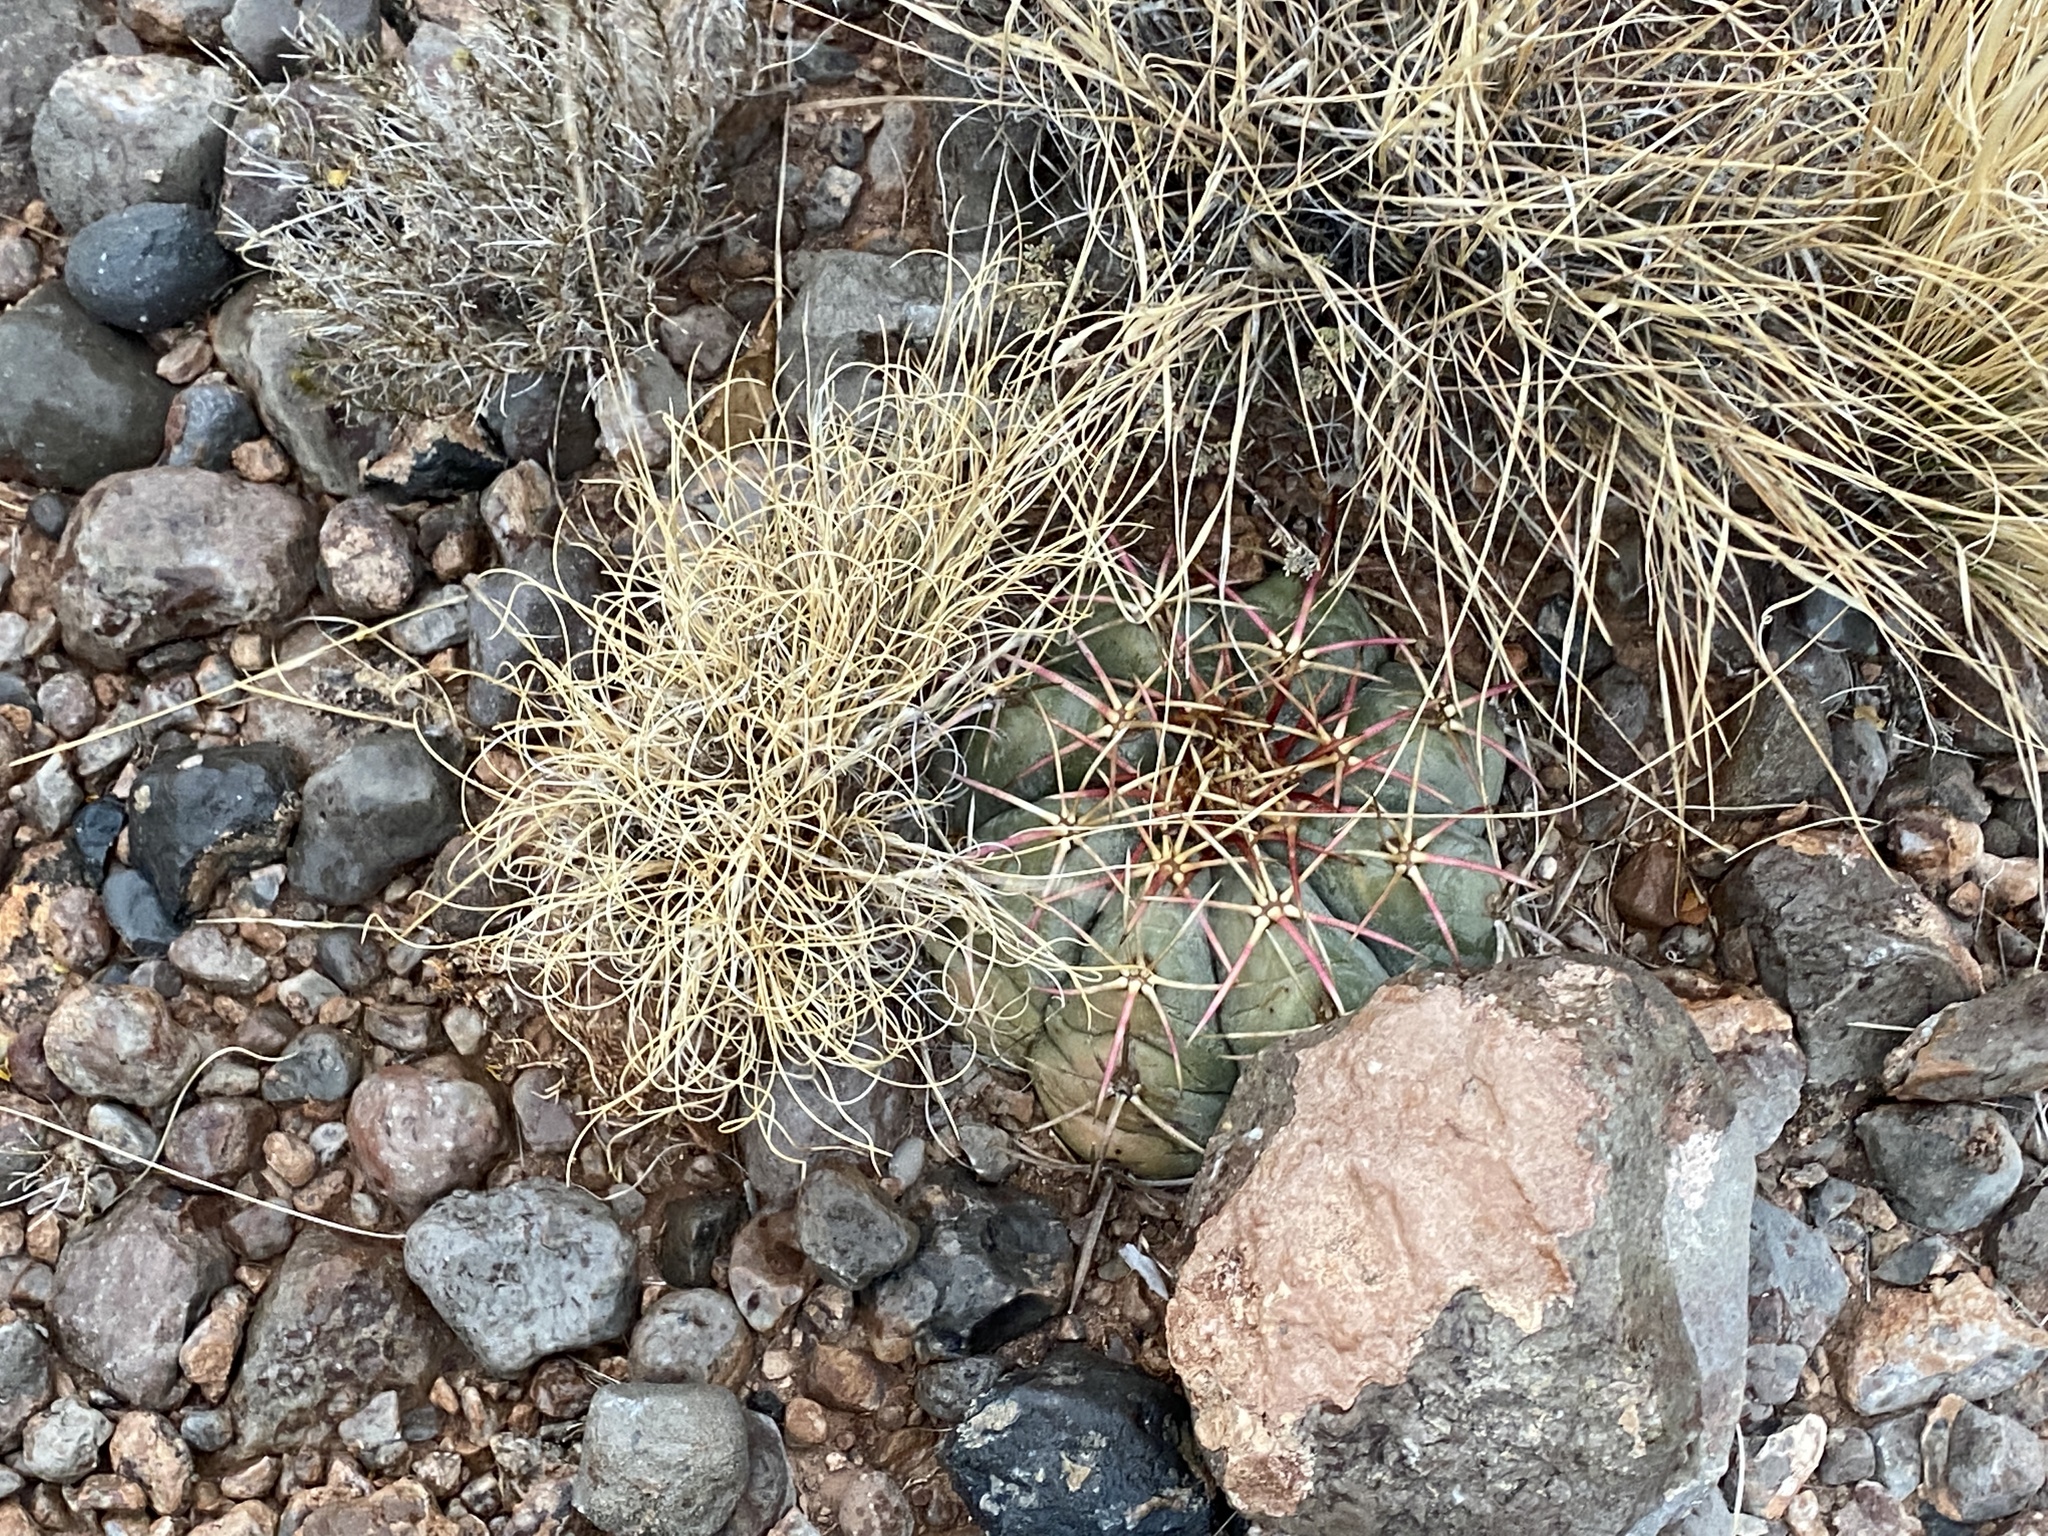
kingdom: Plantae
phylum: Tracheophyta
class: Magnoliopsida
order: Caryophyllales
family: Cactaceae
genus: Echinocactus
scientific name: Echinocactus horizonthalonius
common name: Devilshead
